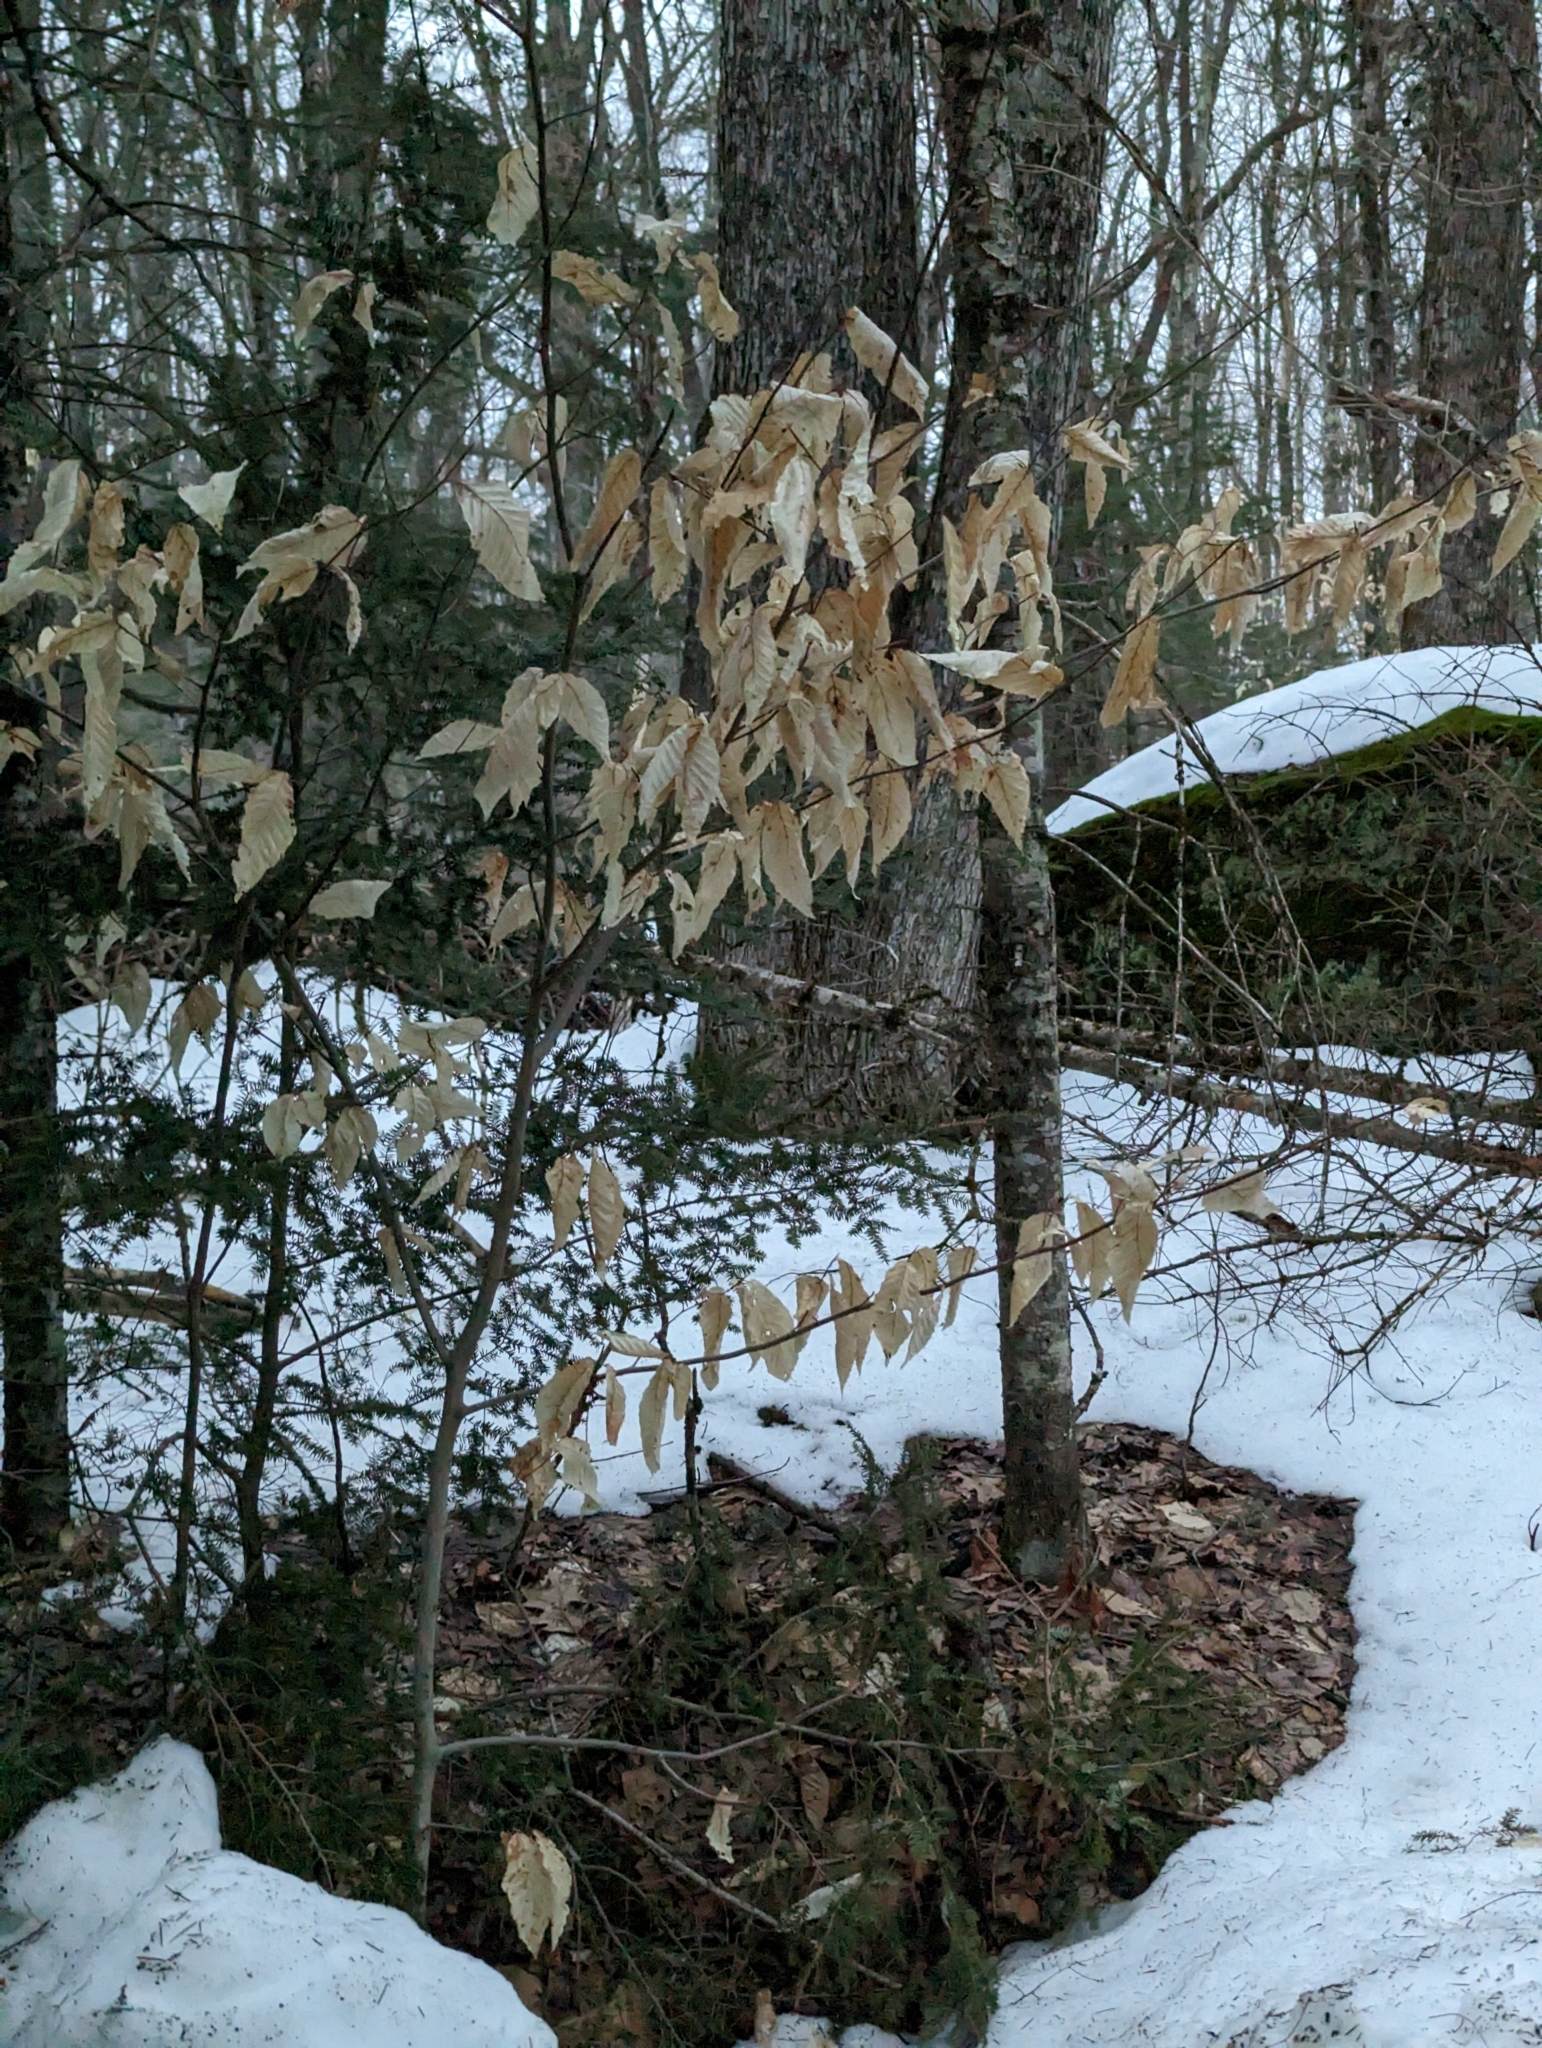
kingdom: Plantae
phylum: Tracheophyta
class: Magnoliopsida
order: Fagales
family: Fagaceae
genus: Fagus
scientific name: Fagus grandifolia
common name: American beech
